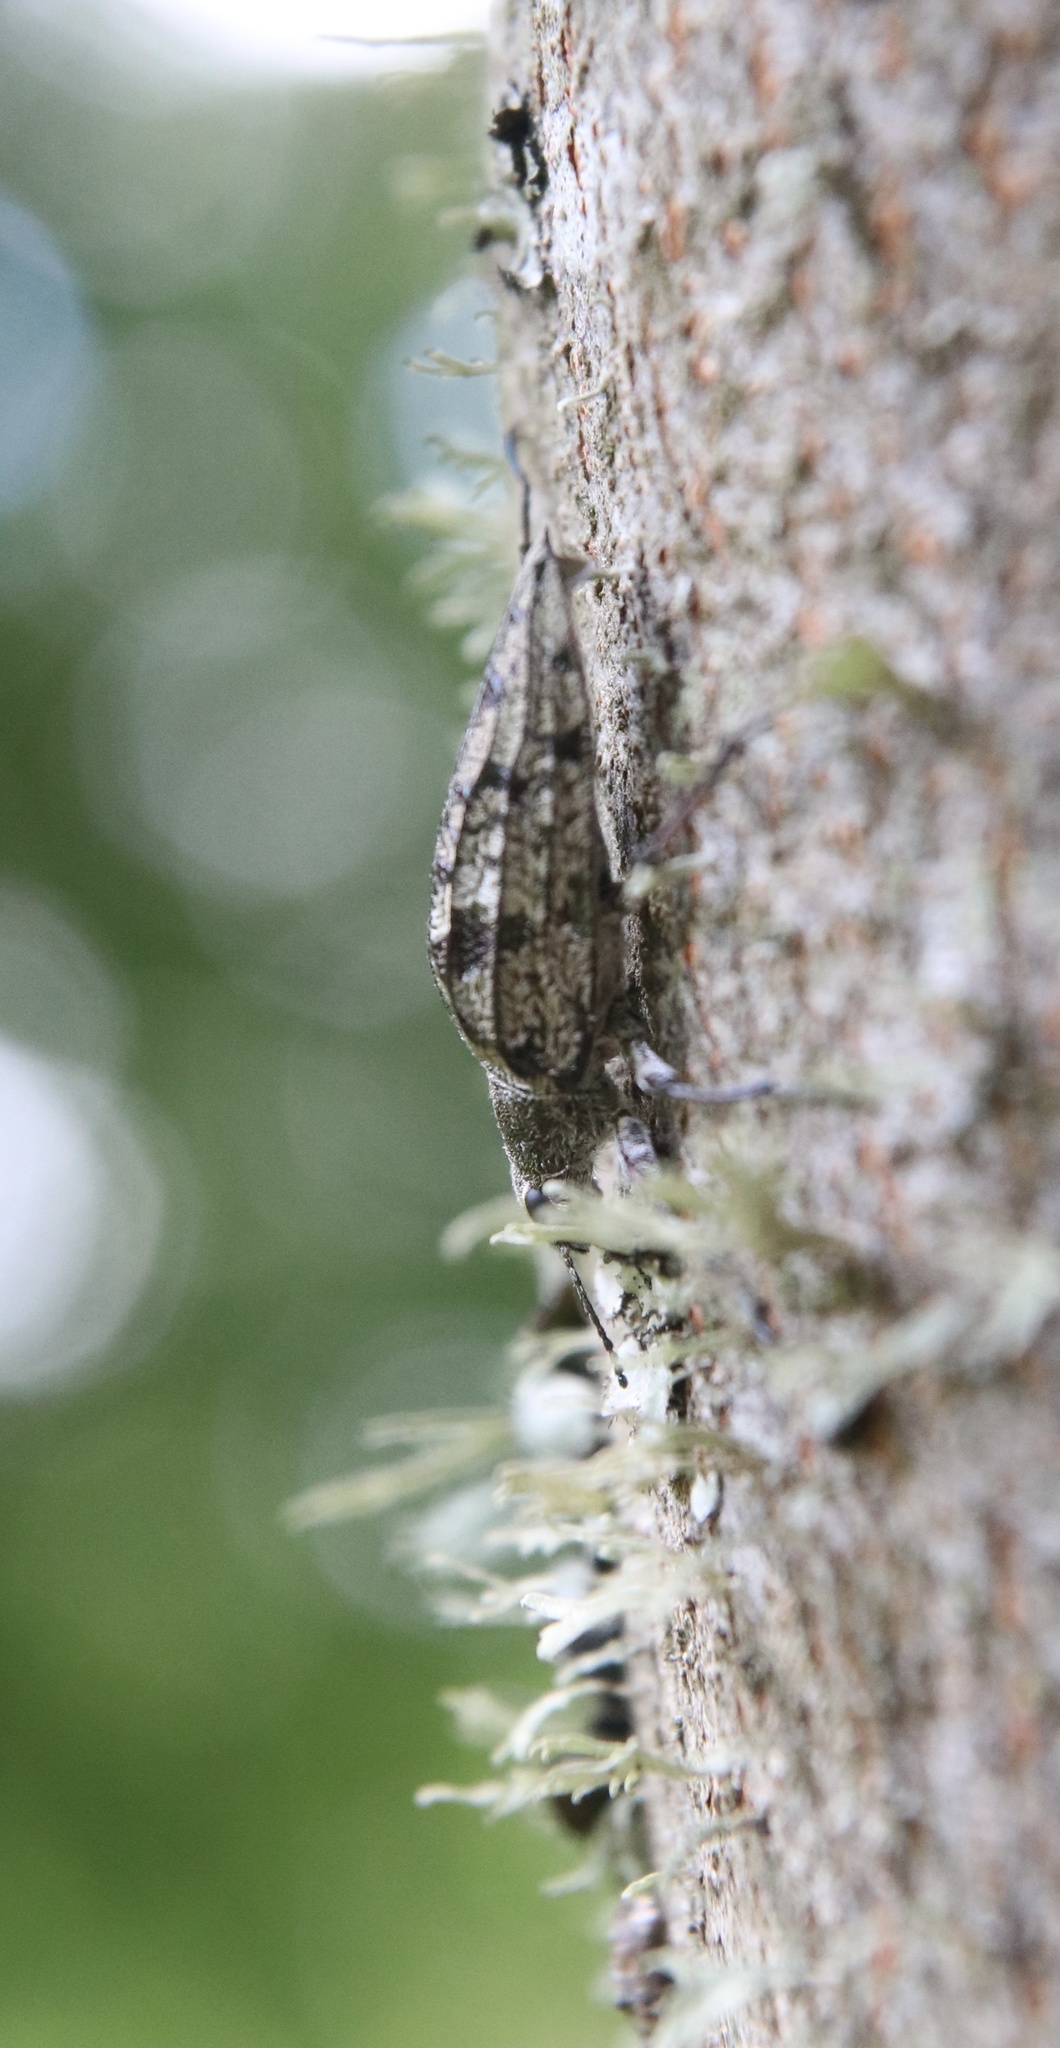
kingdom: Animalia
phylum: Arthropoda
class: Insecta
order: Coleoptera
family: Tenebrionidae
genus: Homocyrtus
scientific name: Homocyrtus
